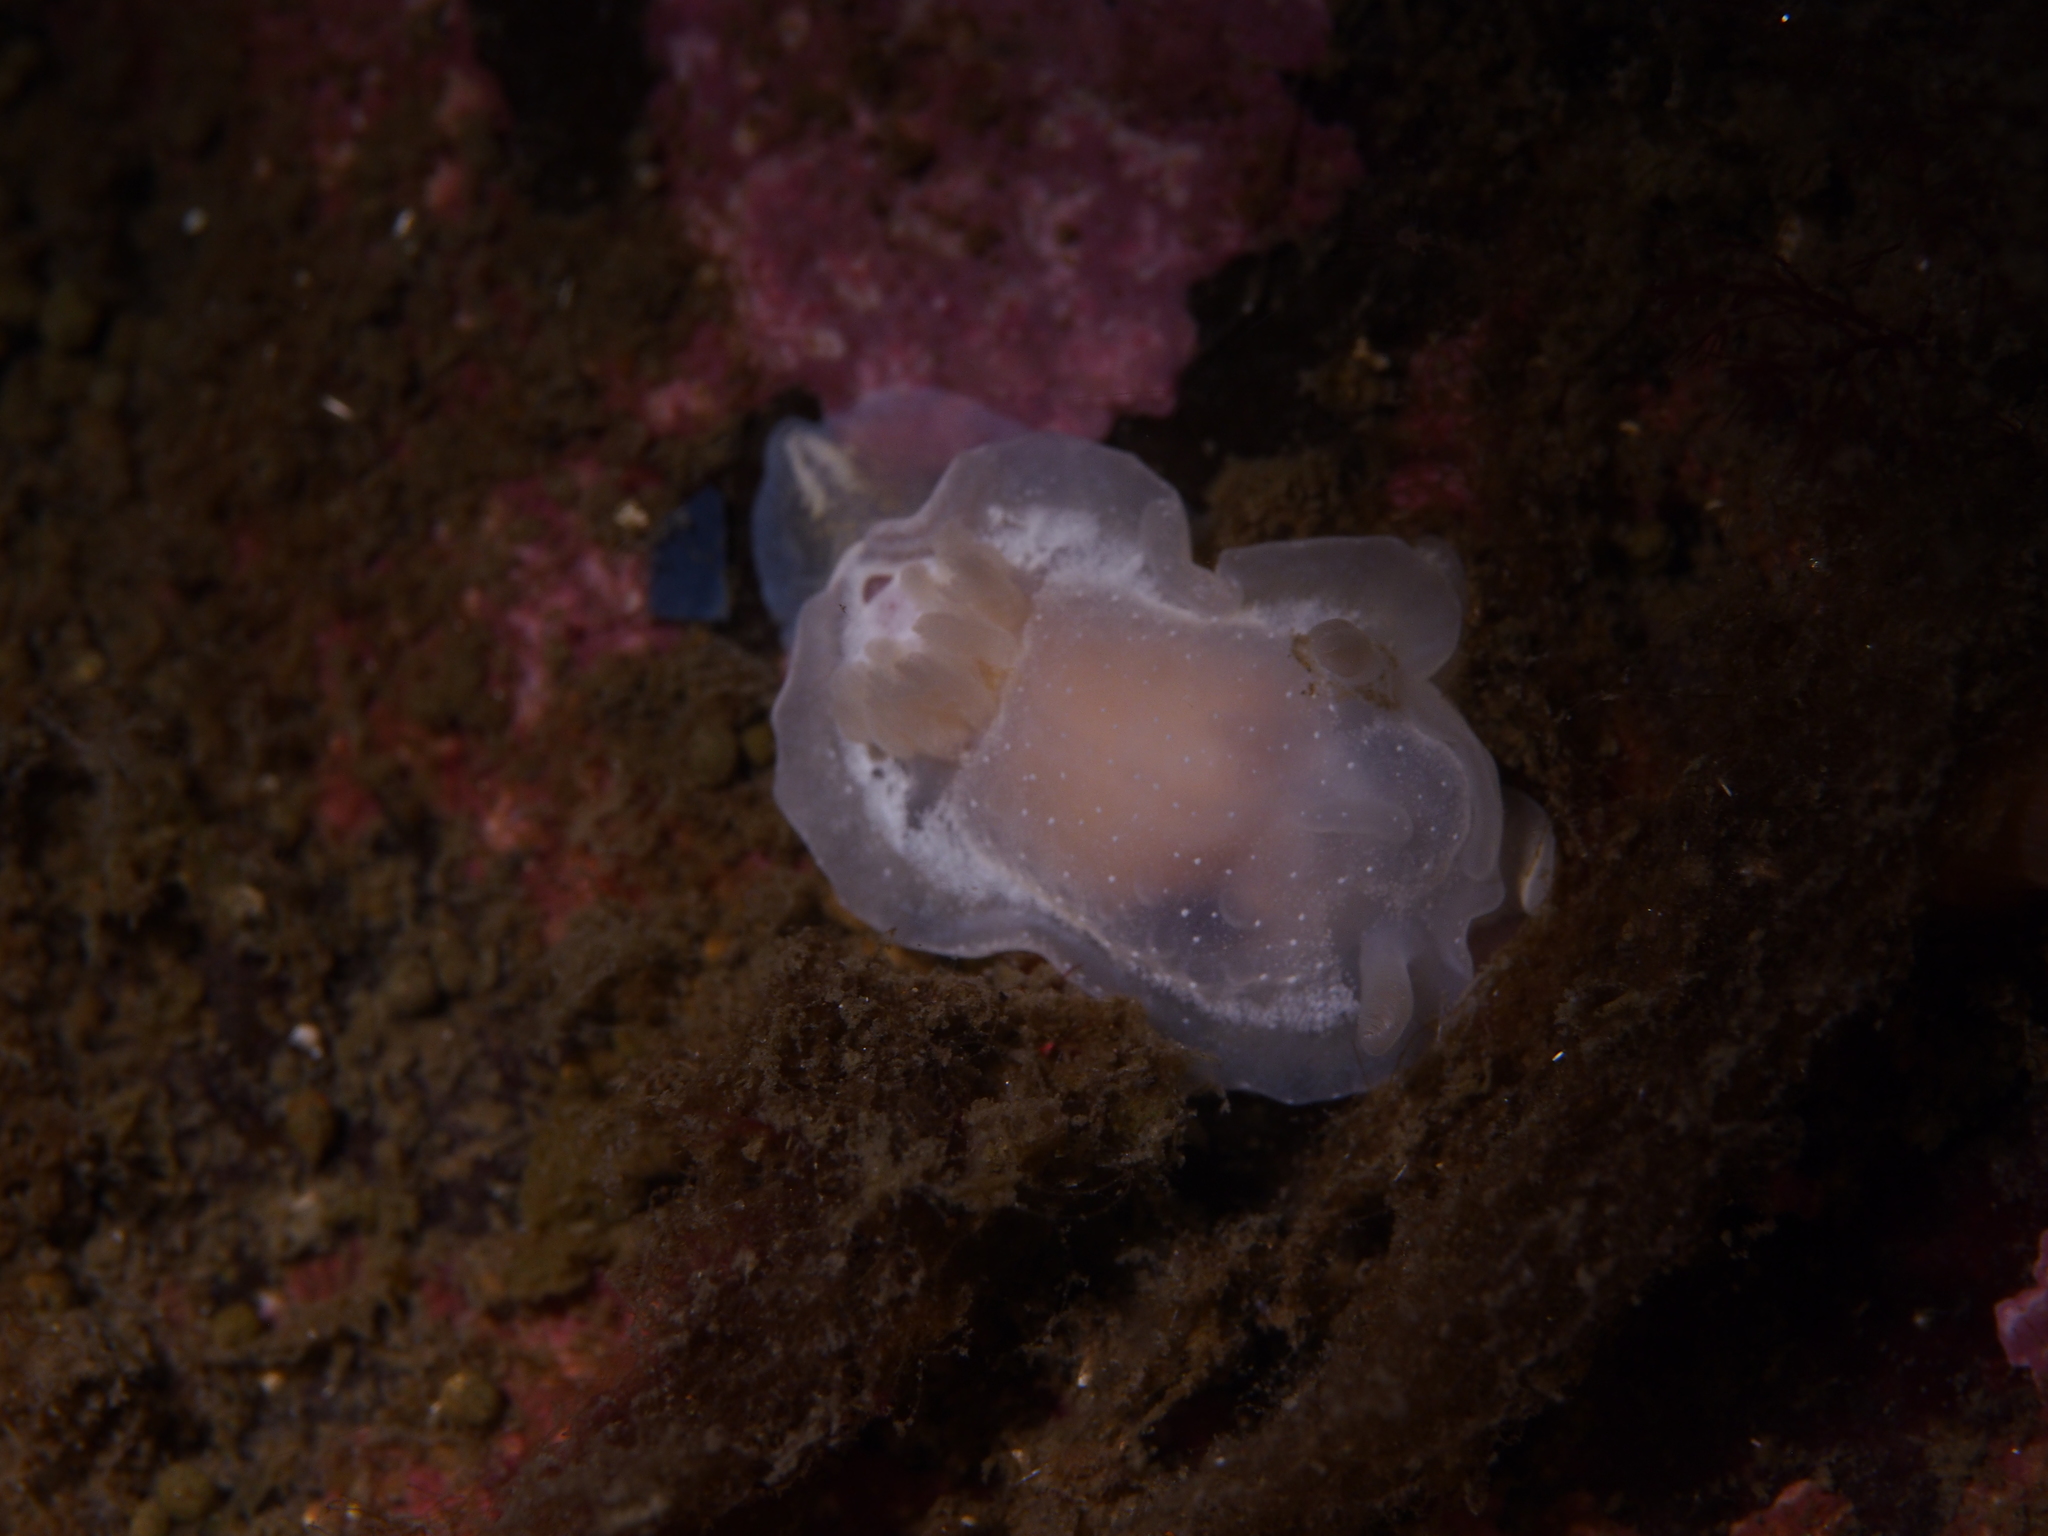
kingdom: Animalia
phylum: Mollusca
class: Gastropoda
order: Nudibranchia
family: Goniodorididae
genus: Okenia
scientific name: Okenia
